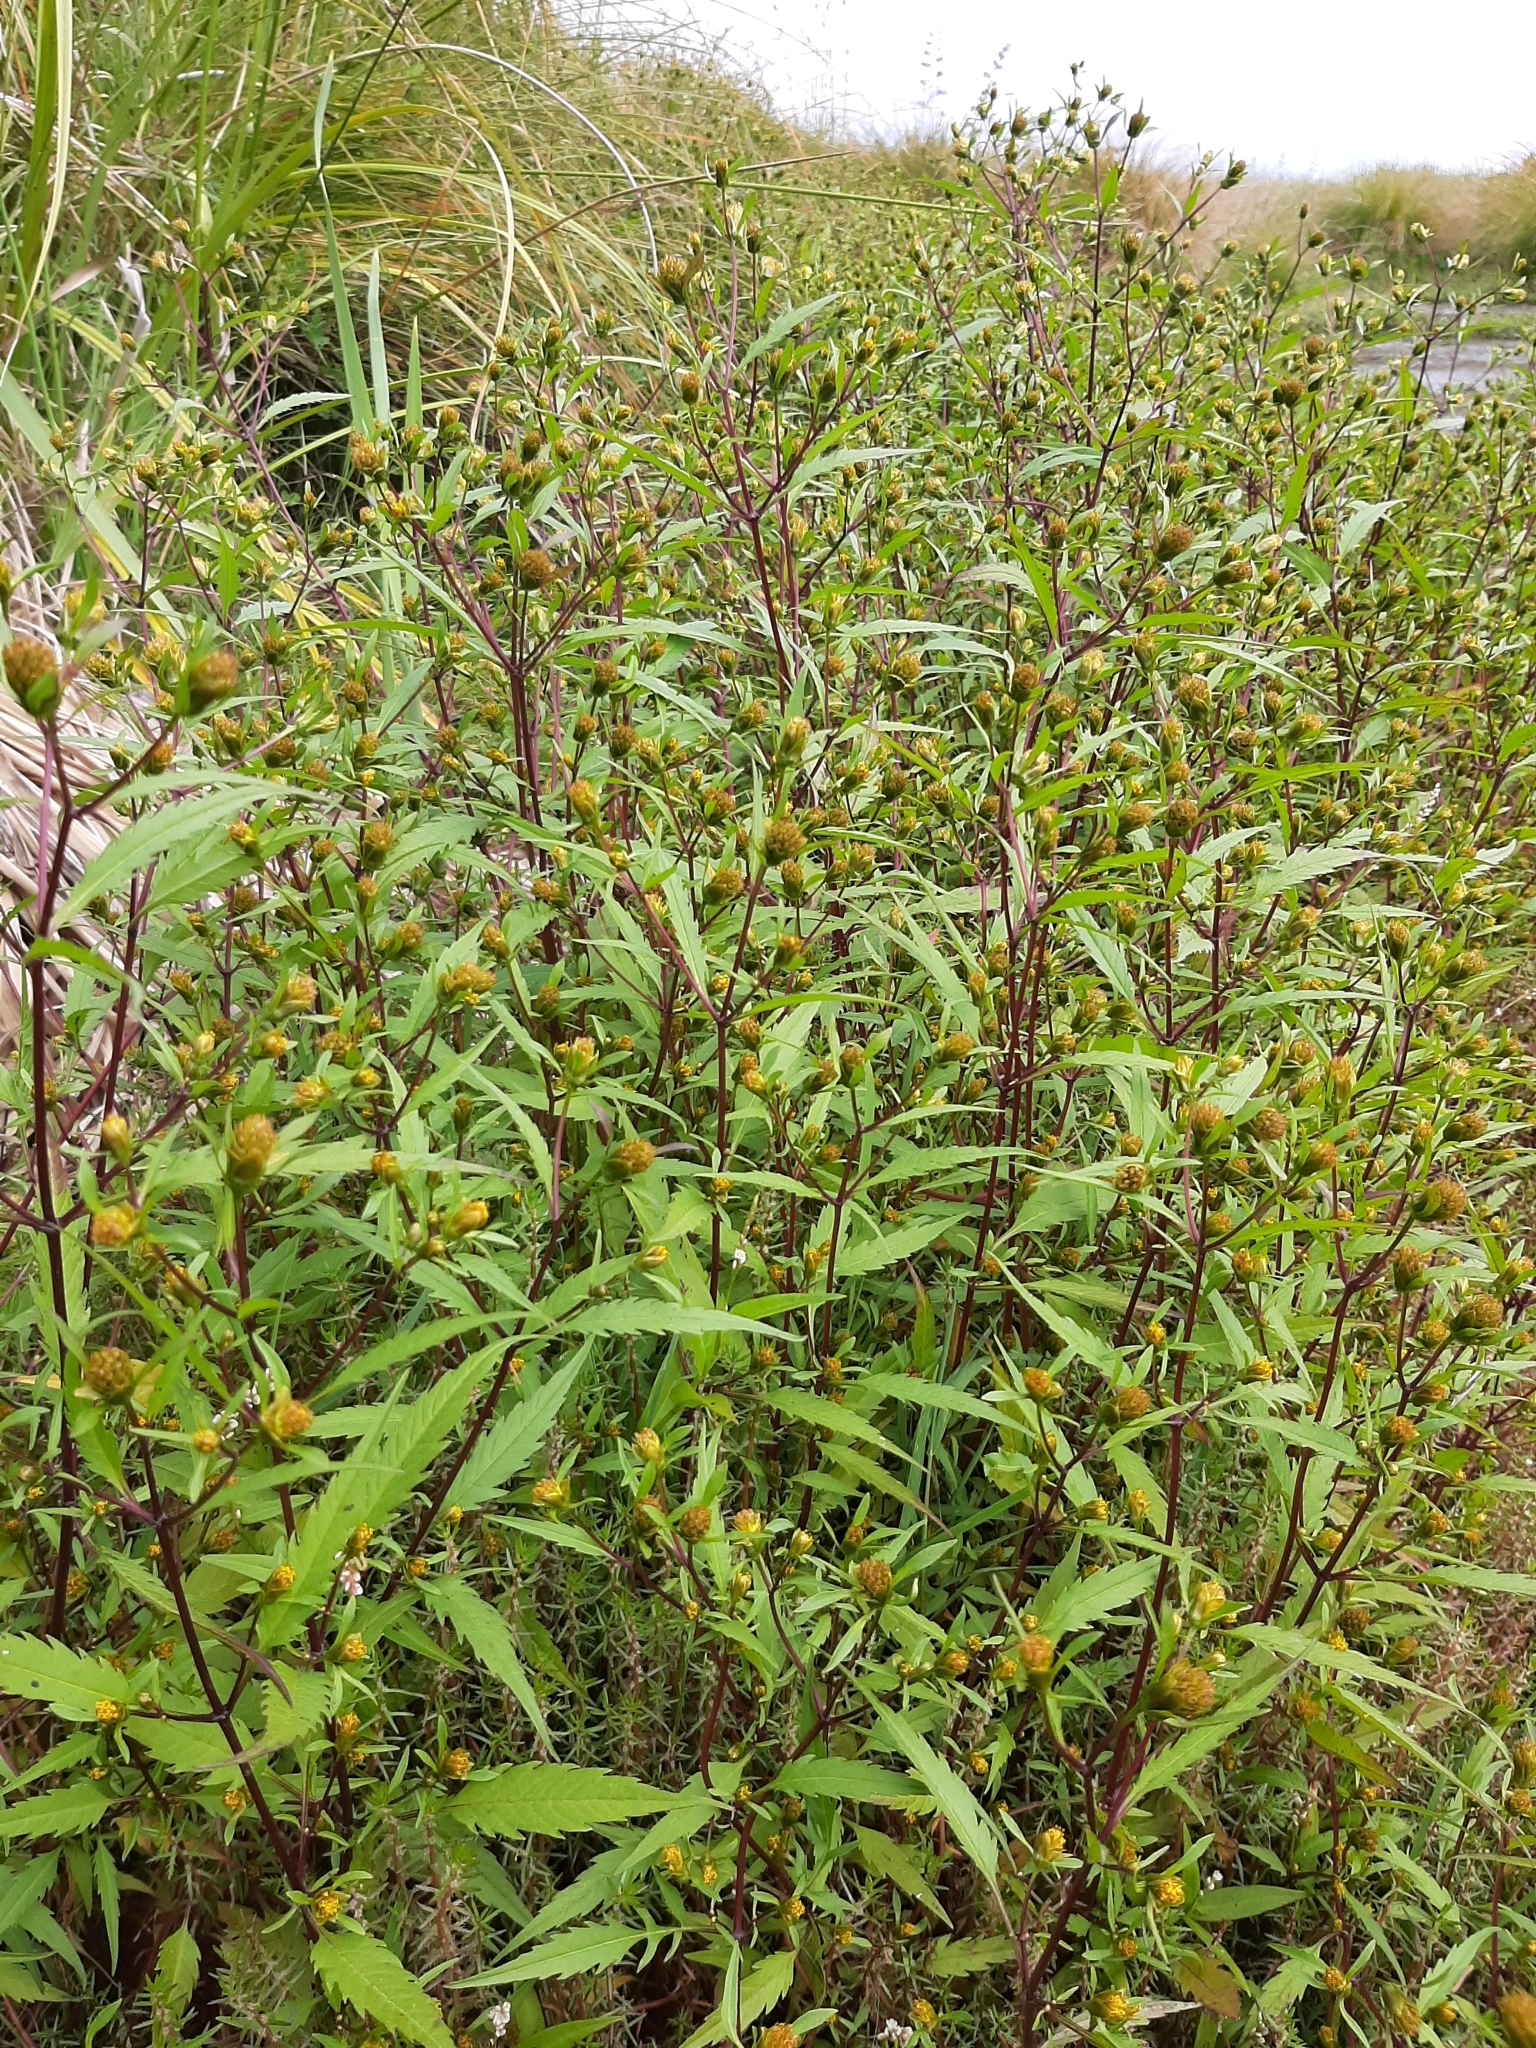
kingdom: Plantae
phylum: Tracheophyta
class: Magnoliopsida
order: Asterales
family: Asteraceae
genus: Bidens
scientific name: Bidens frondosa
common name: Beggarticks
